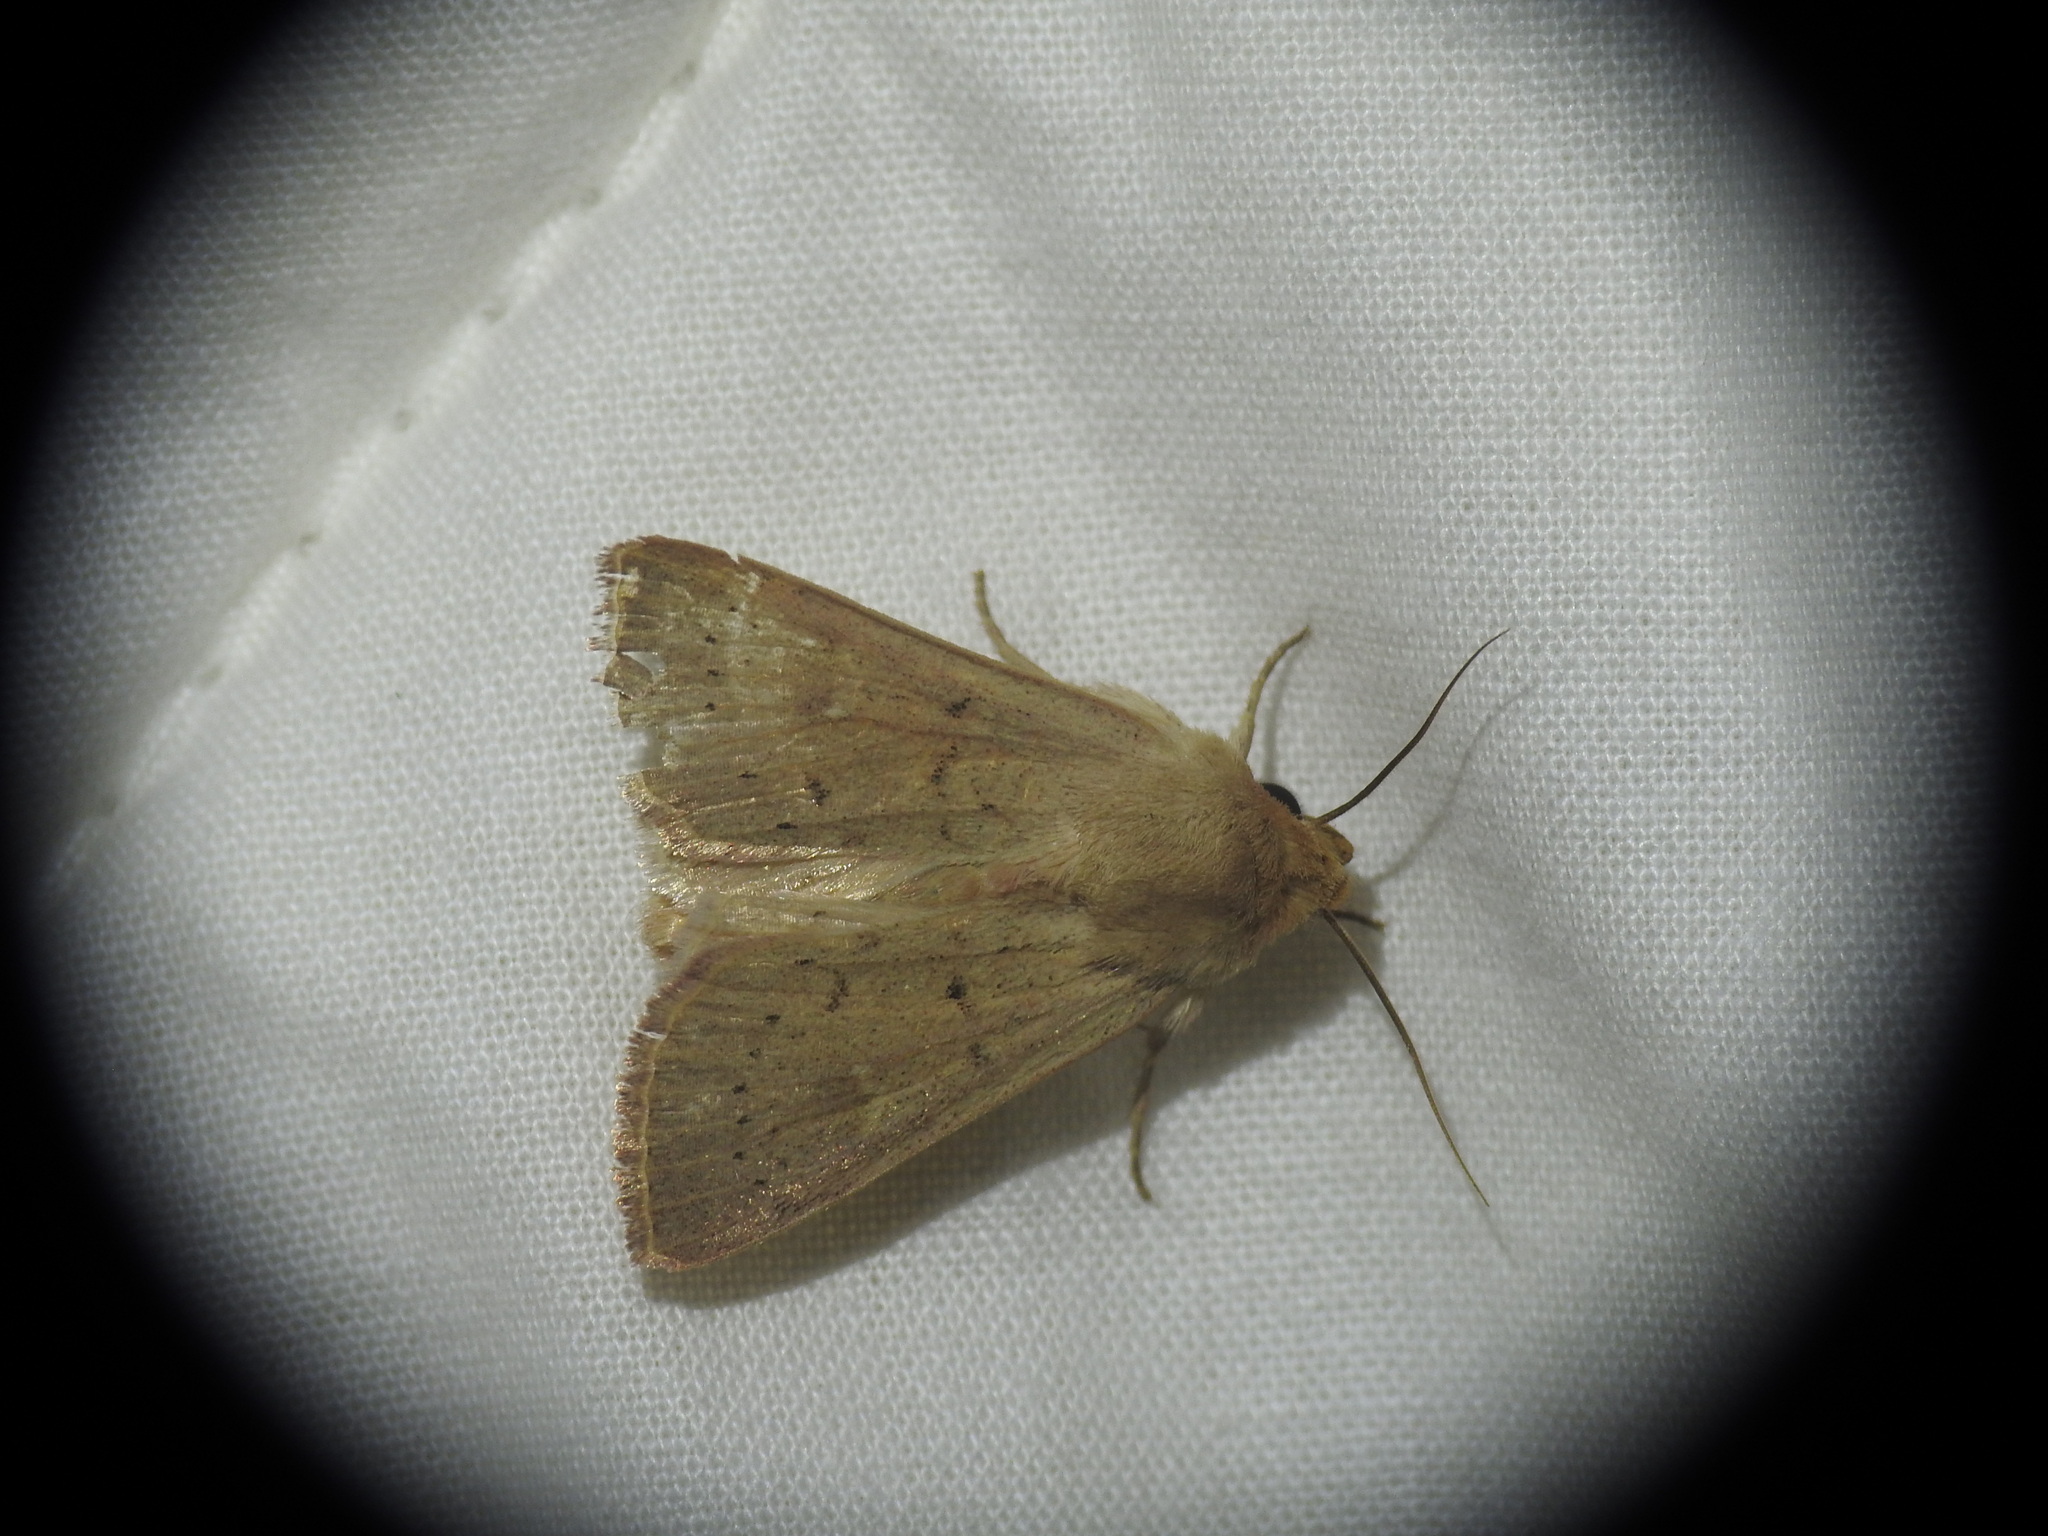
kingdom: Animalia
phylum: Arthropoda
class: Insecta
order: Lepidoptera
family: Noctuidae
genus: Mythimna
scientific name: Mythimna ferrago
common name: Clay
